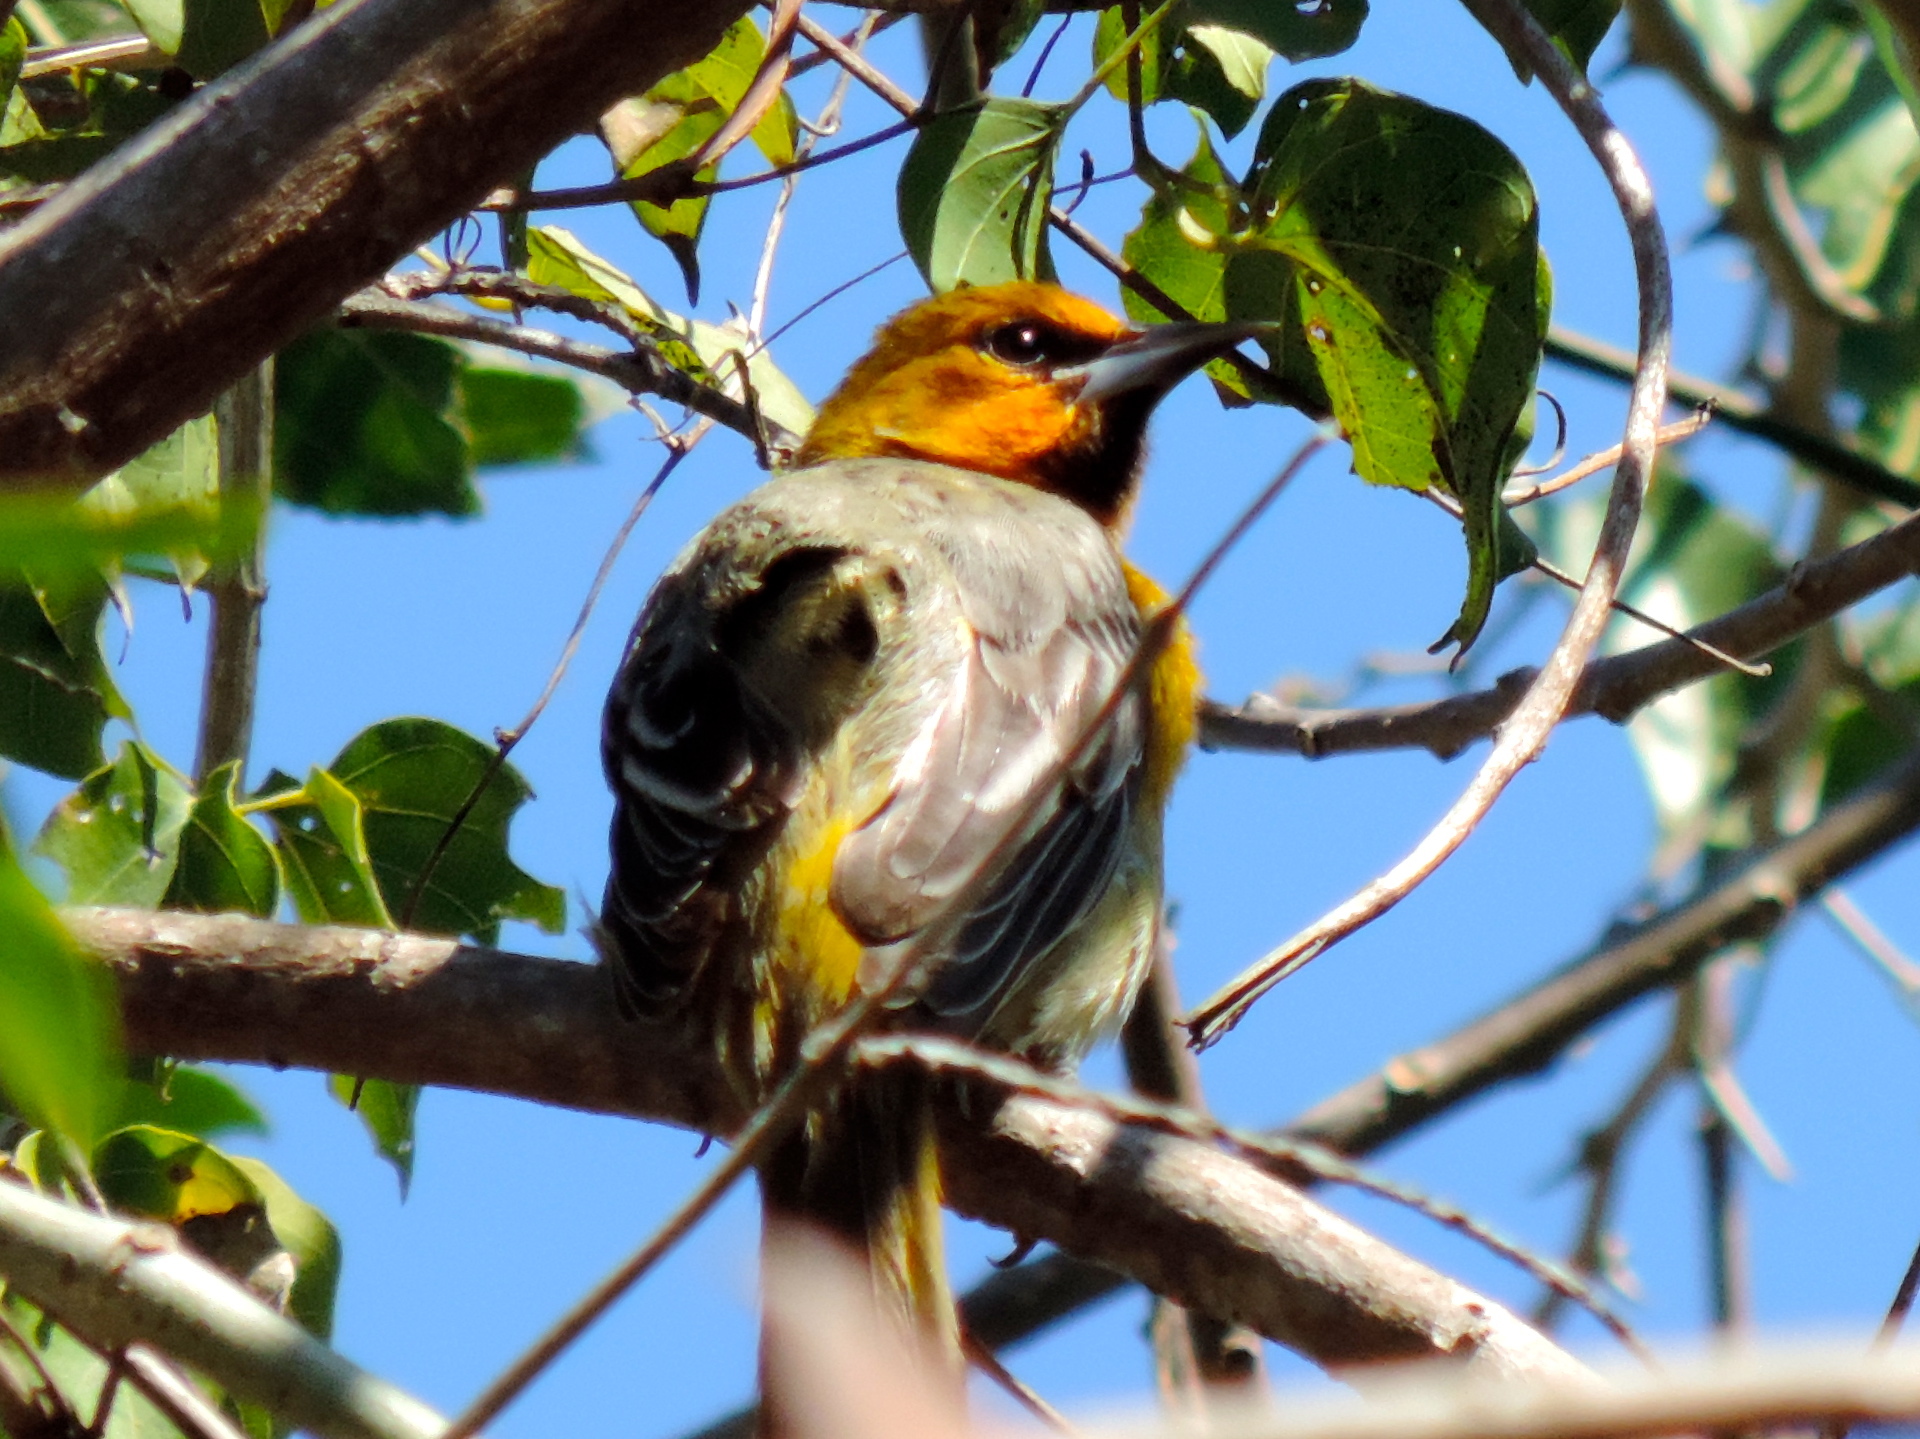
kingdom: Animalia
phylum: Chordata
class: Aves
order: Passeriformes
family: Icteridae
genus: Icterus
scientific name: Icterus
